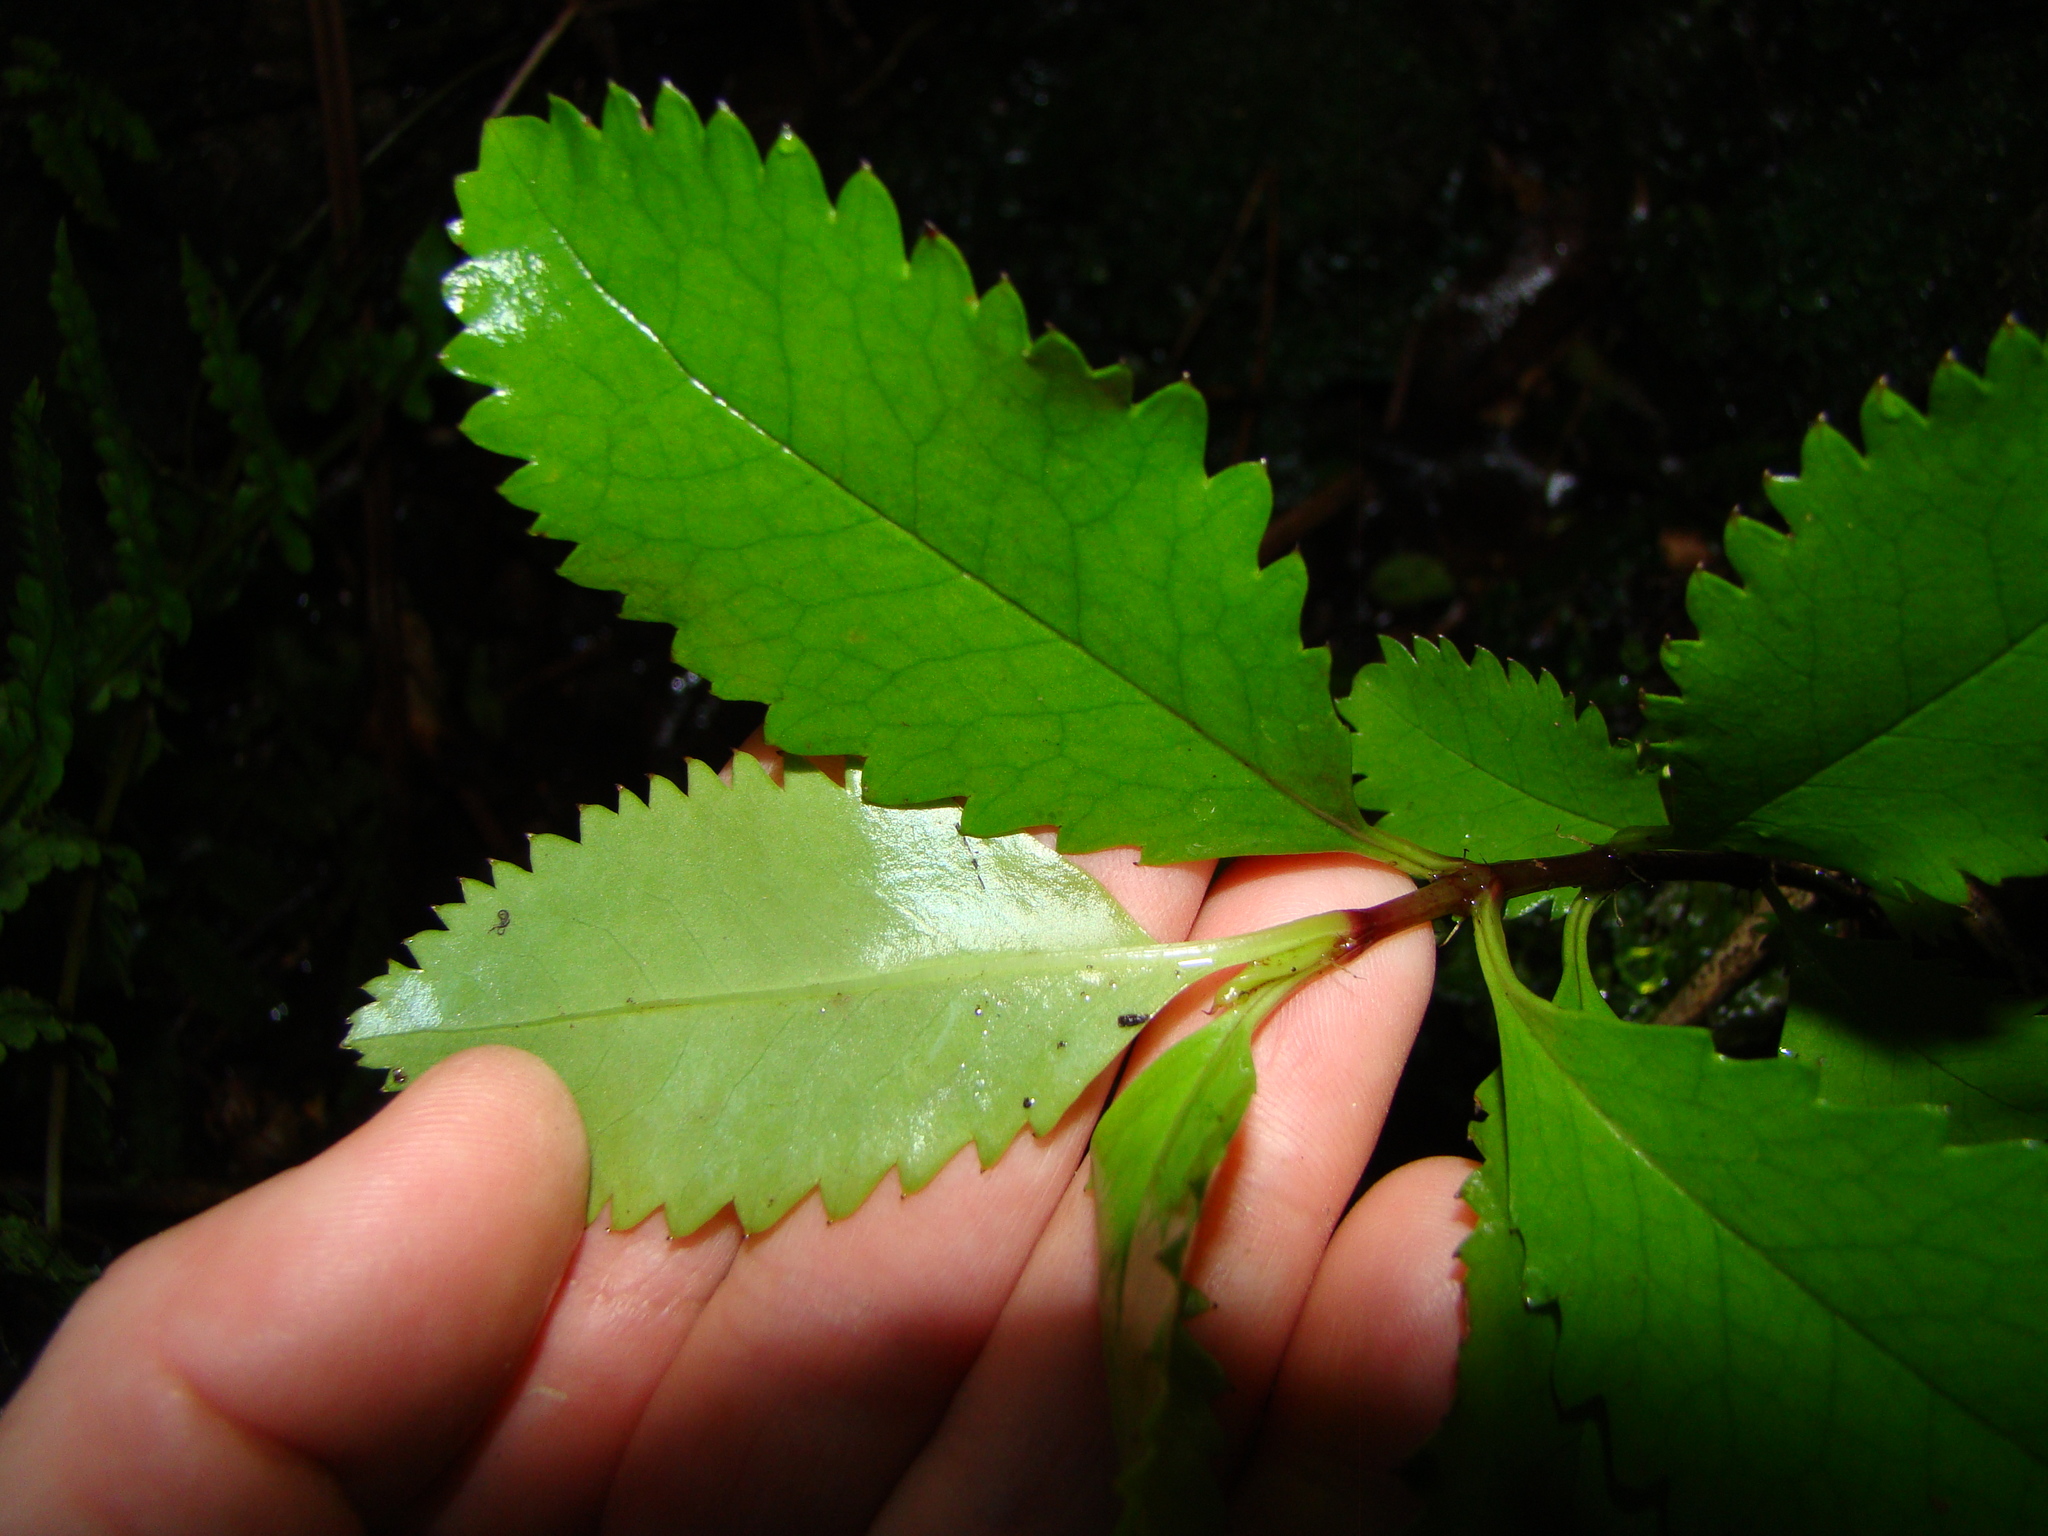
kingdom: Plantae
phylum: Tracheophyta
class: Magnoliopsida
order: Chloranthales
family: Chloranthaceae
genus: Ascarina
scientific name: Ascarina lucida
